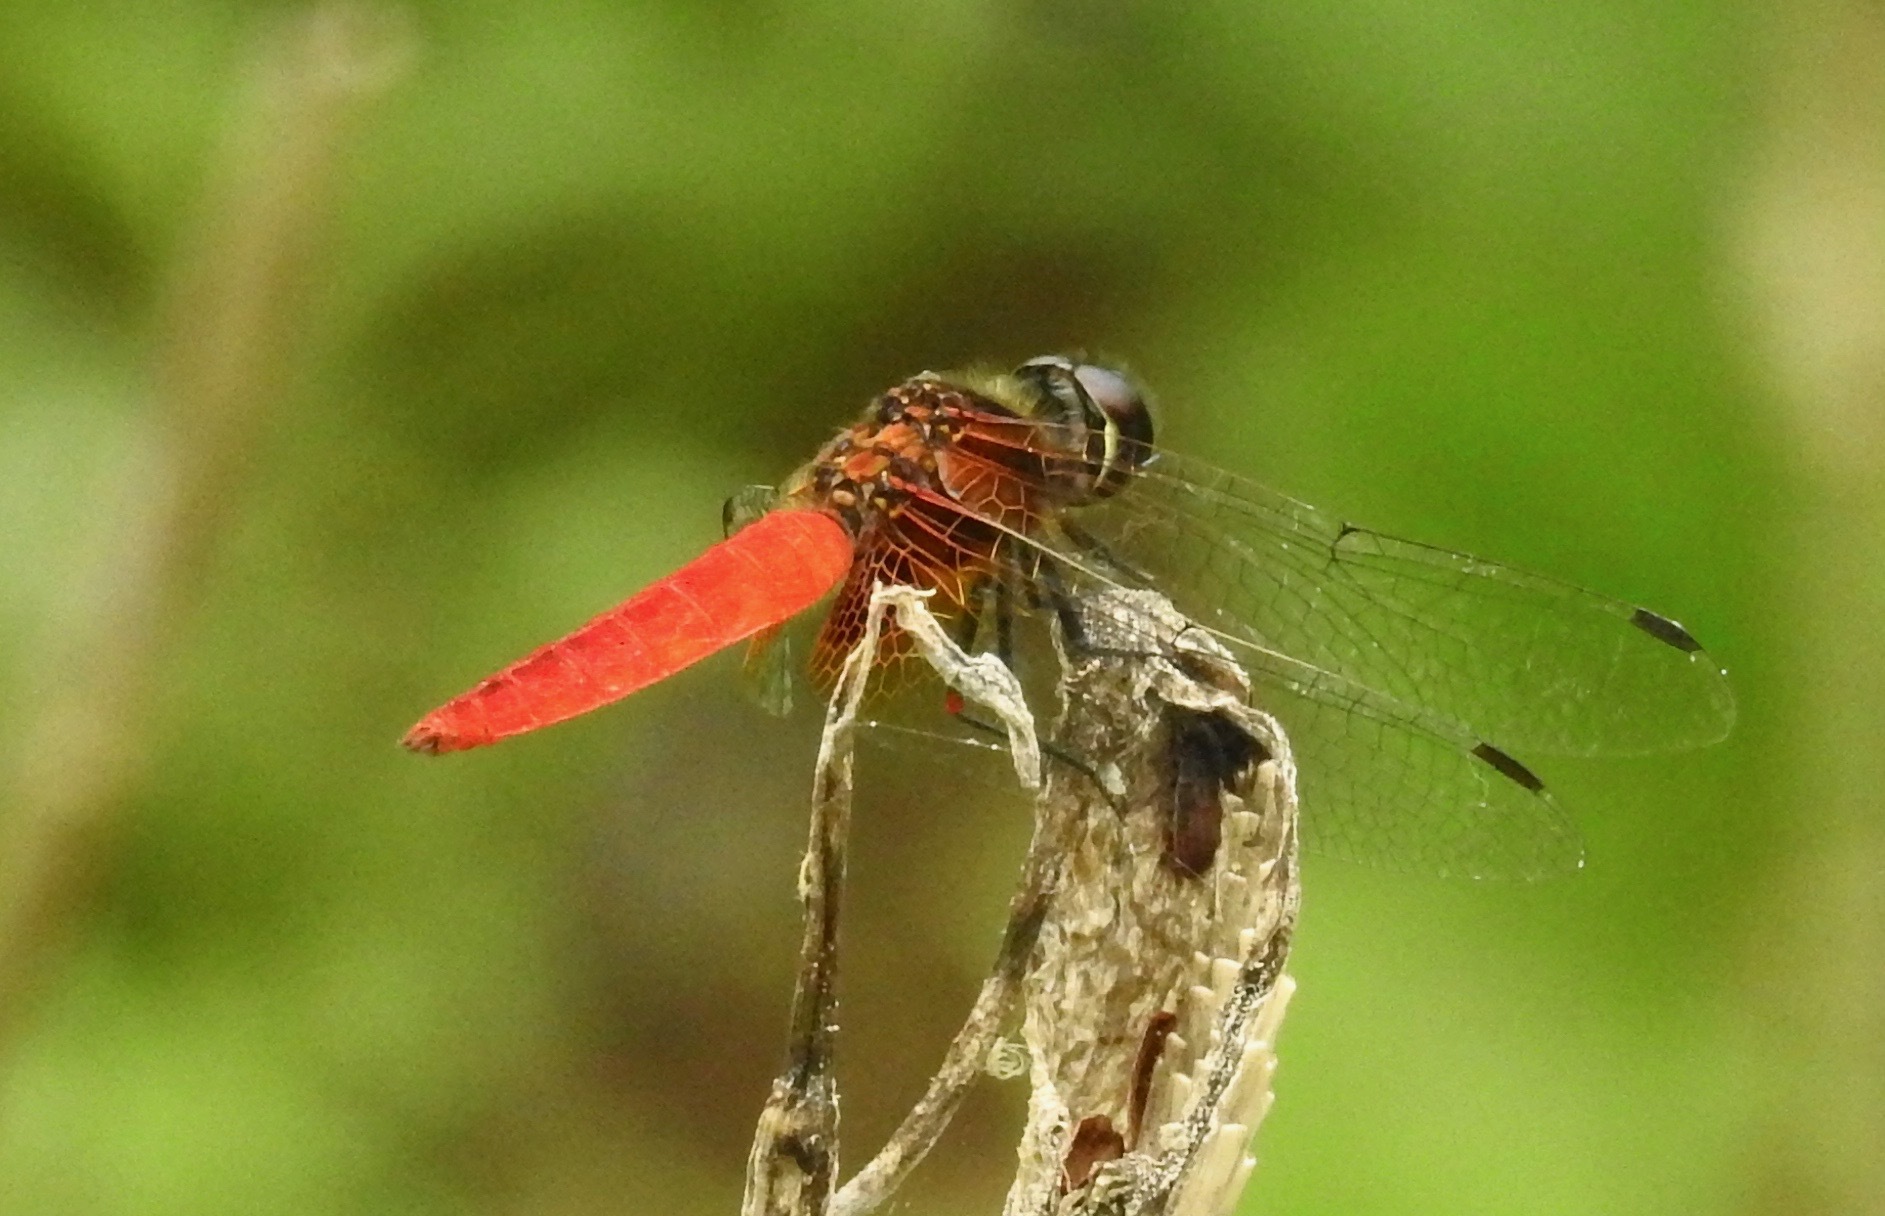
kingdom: Animalia
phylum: Arthropoda
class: Insecta
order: Odonata
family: Libellulidae
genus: Aethriamanta
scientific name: Aethriamanta brevipennis
